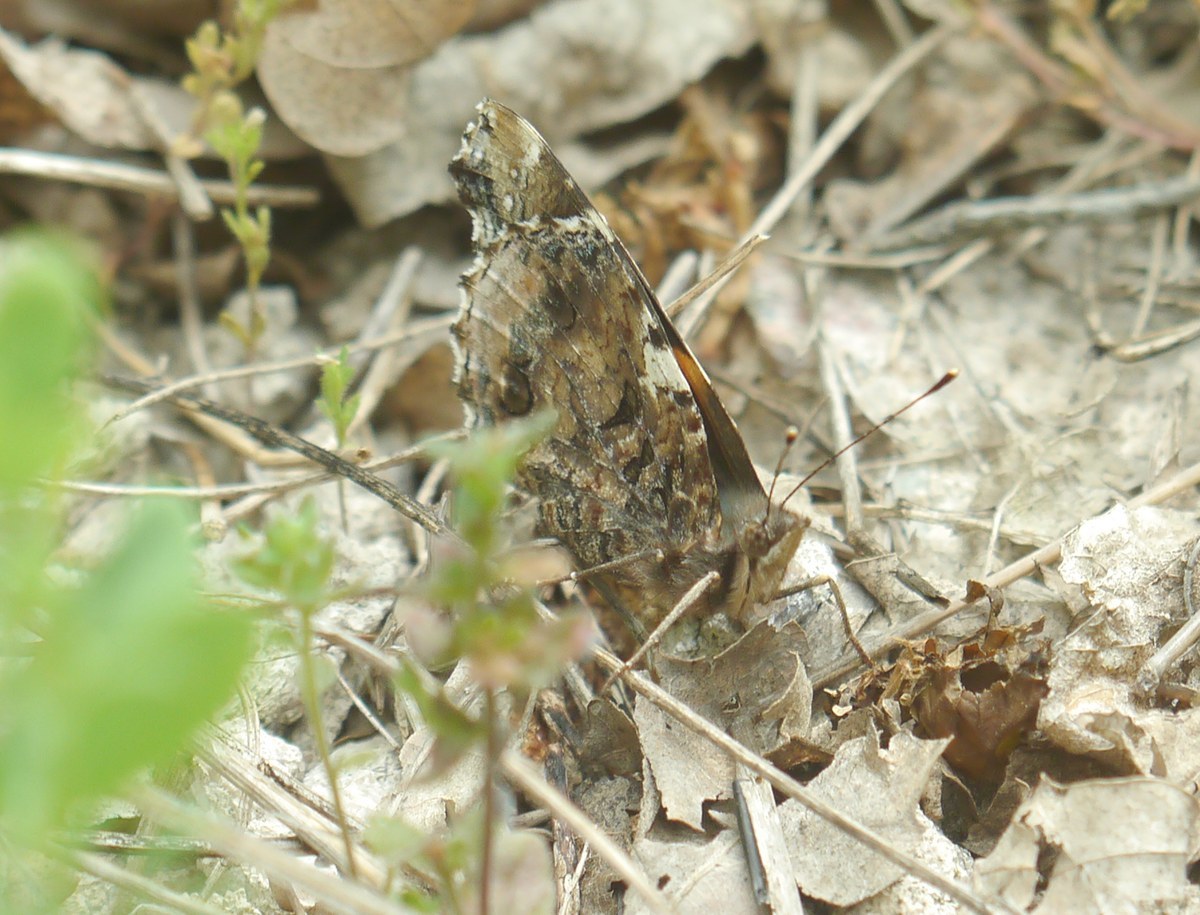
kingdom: Animalia
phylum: Arthropoda
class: Insecta
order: Lepidoptera
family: Nymphalidae
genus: Vanessa
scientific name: Vanessa atalanta
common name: Red admiral
